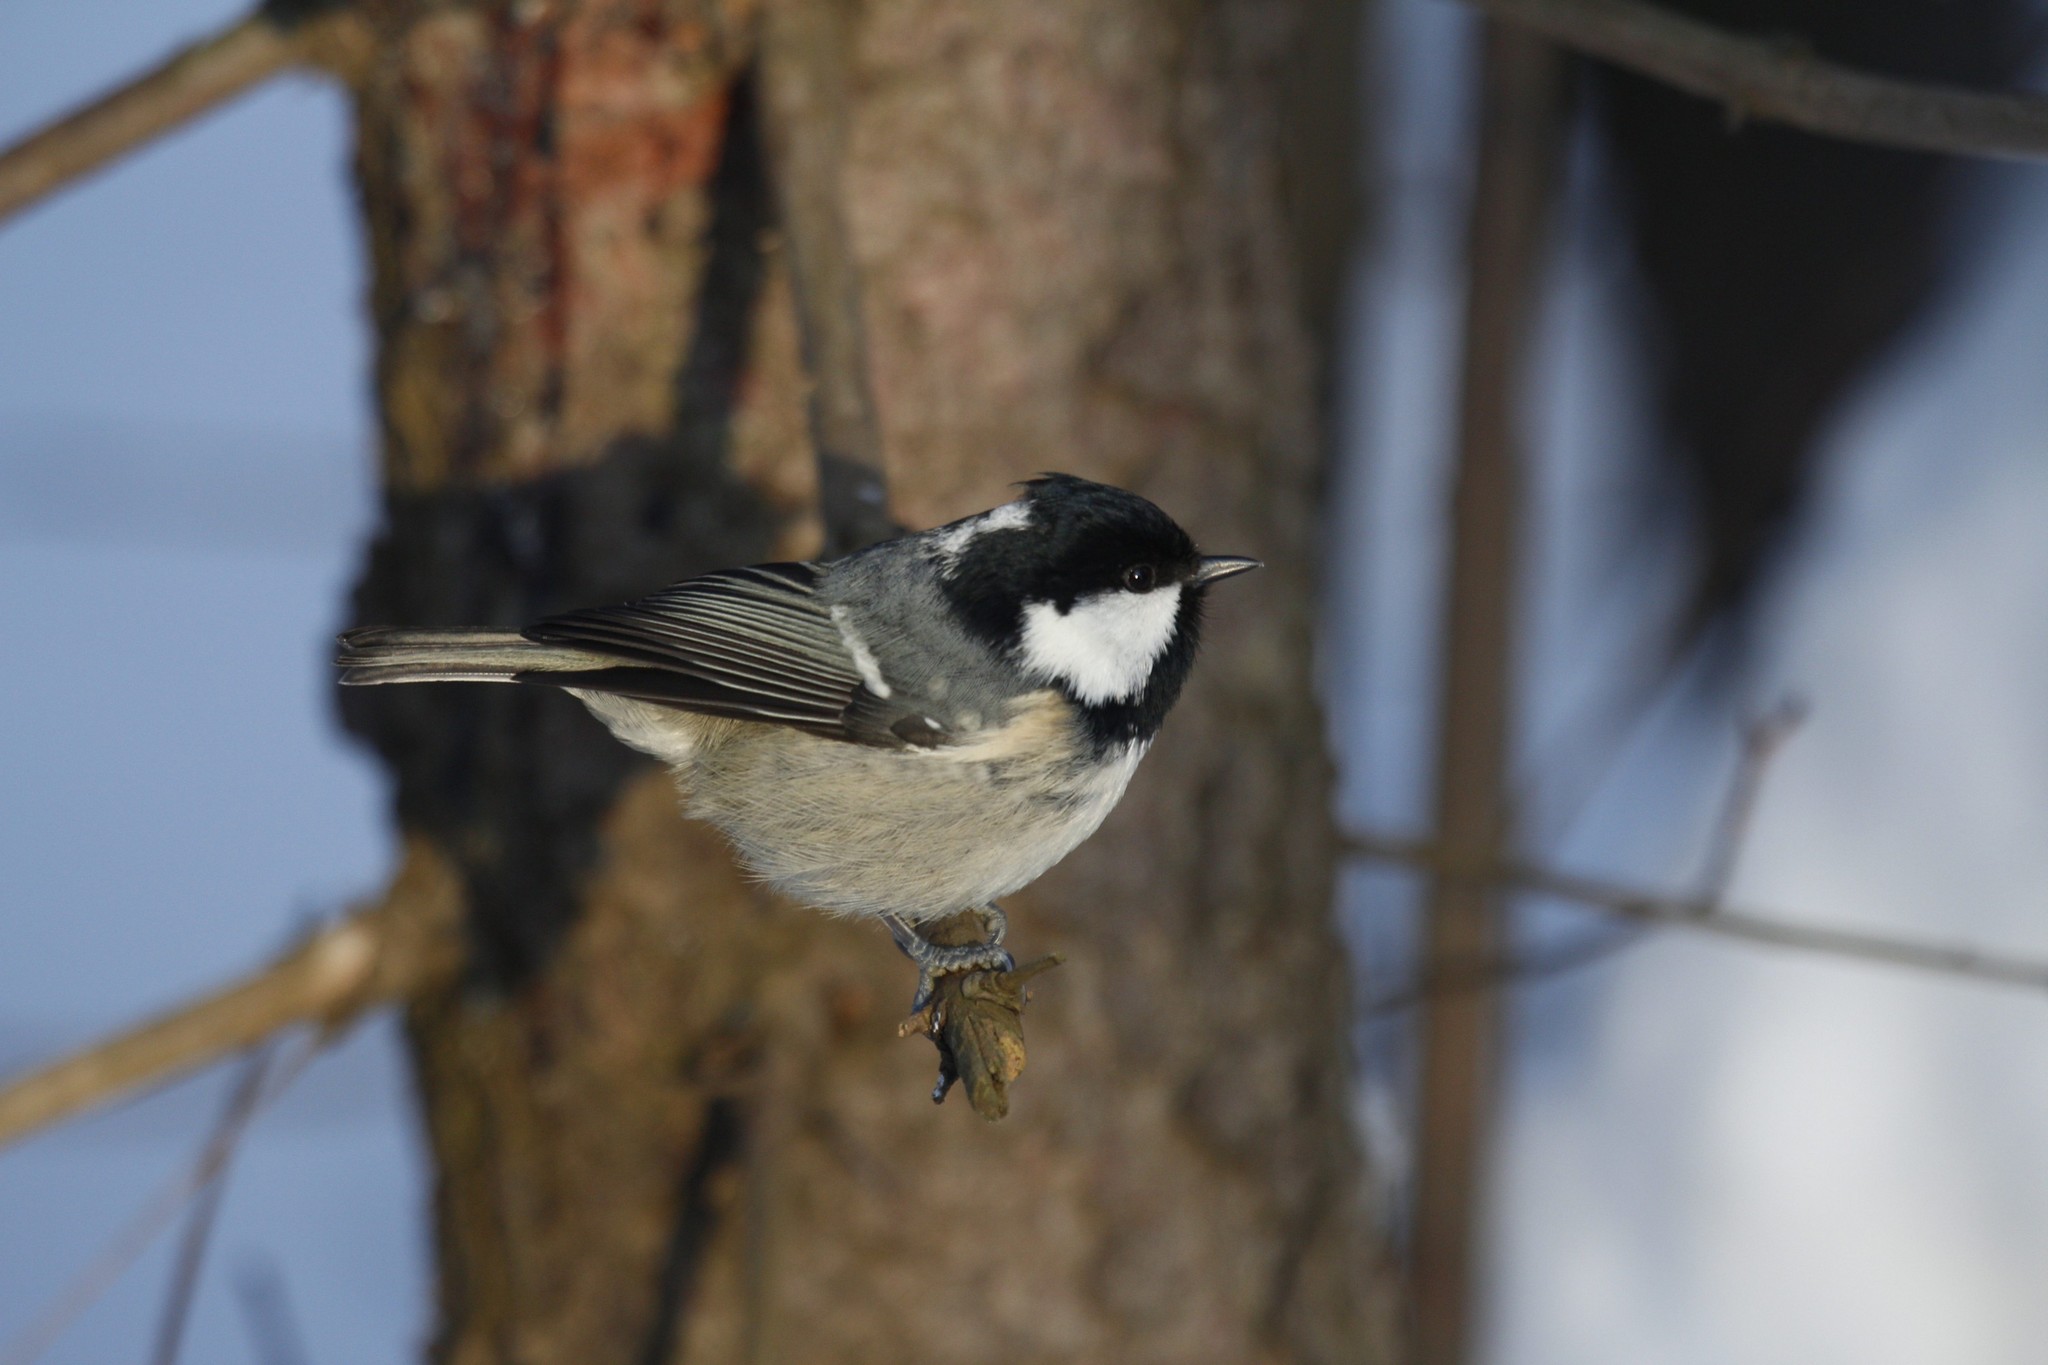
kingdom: Animalia
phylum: Chordata
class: Aves
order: Passeriformes
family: Paridae
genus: Periparus
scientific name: Periparus ater
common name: Coal tit
